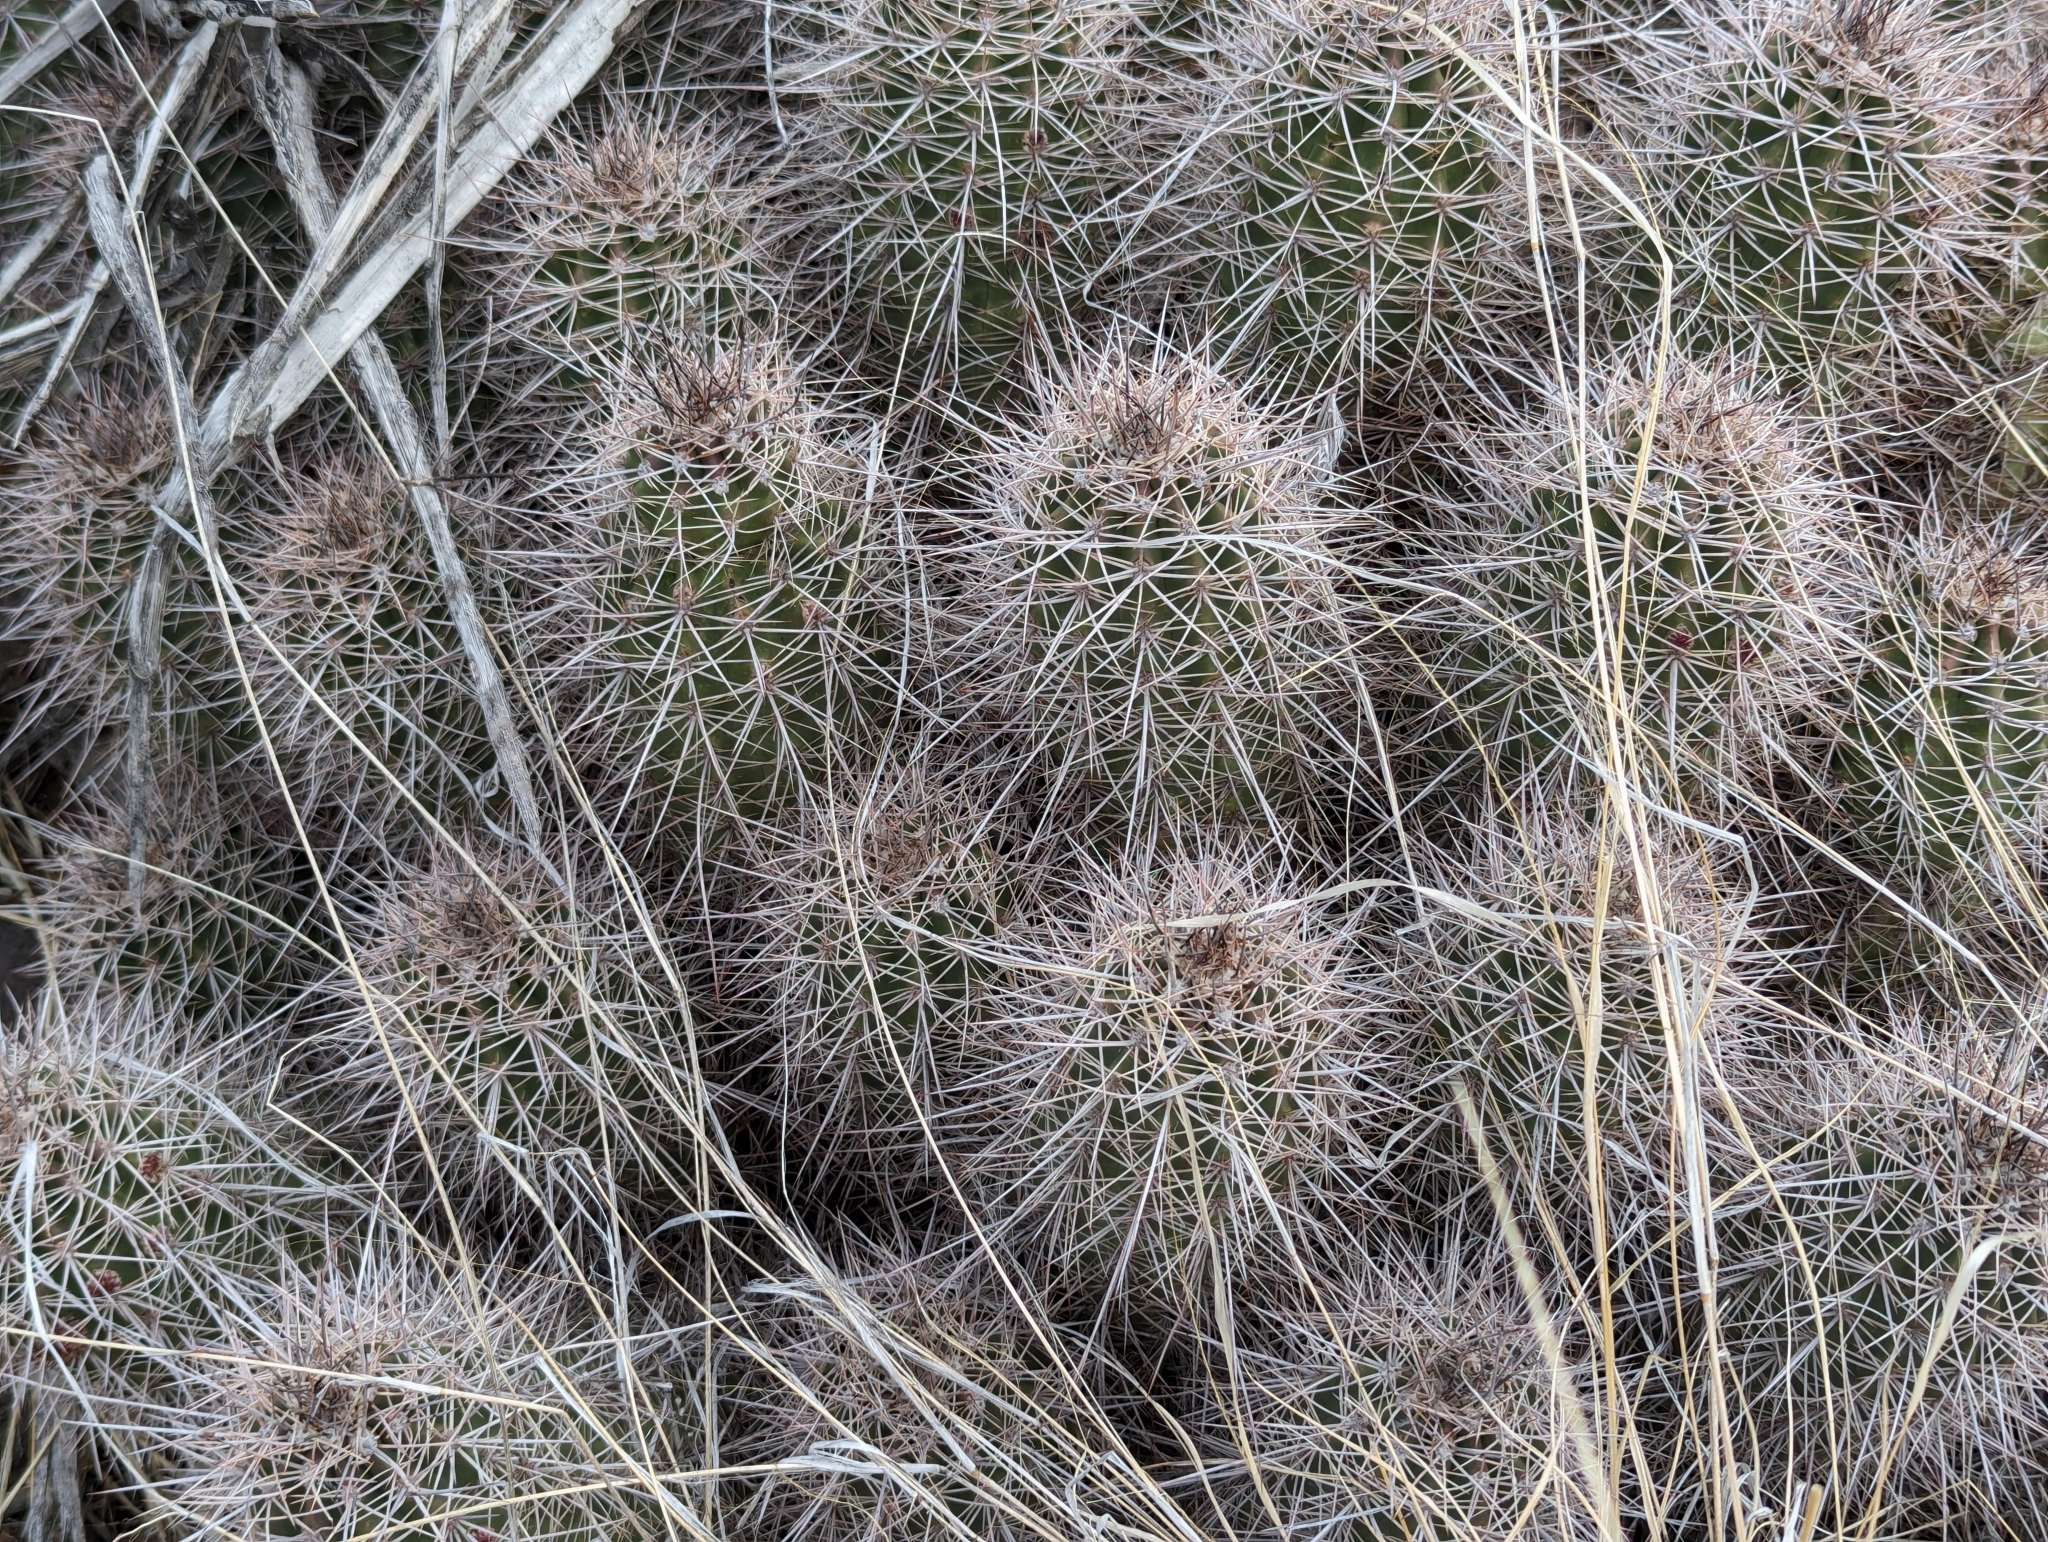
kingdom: Plantae
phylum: Tracheophyta
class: Magnoliopsida
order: Caryophyllales
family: Cactaceae
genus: Echinocereus
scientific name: Echinocereus bakeri
